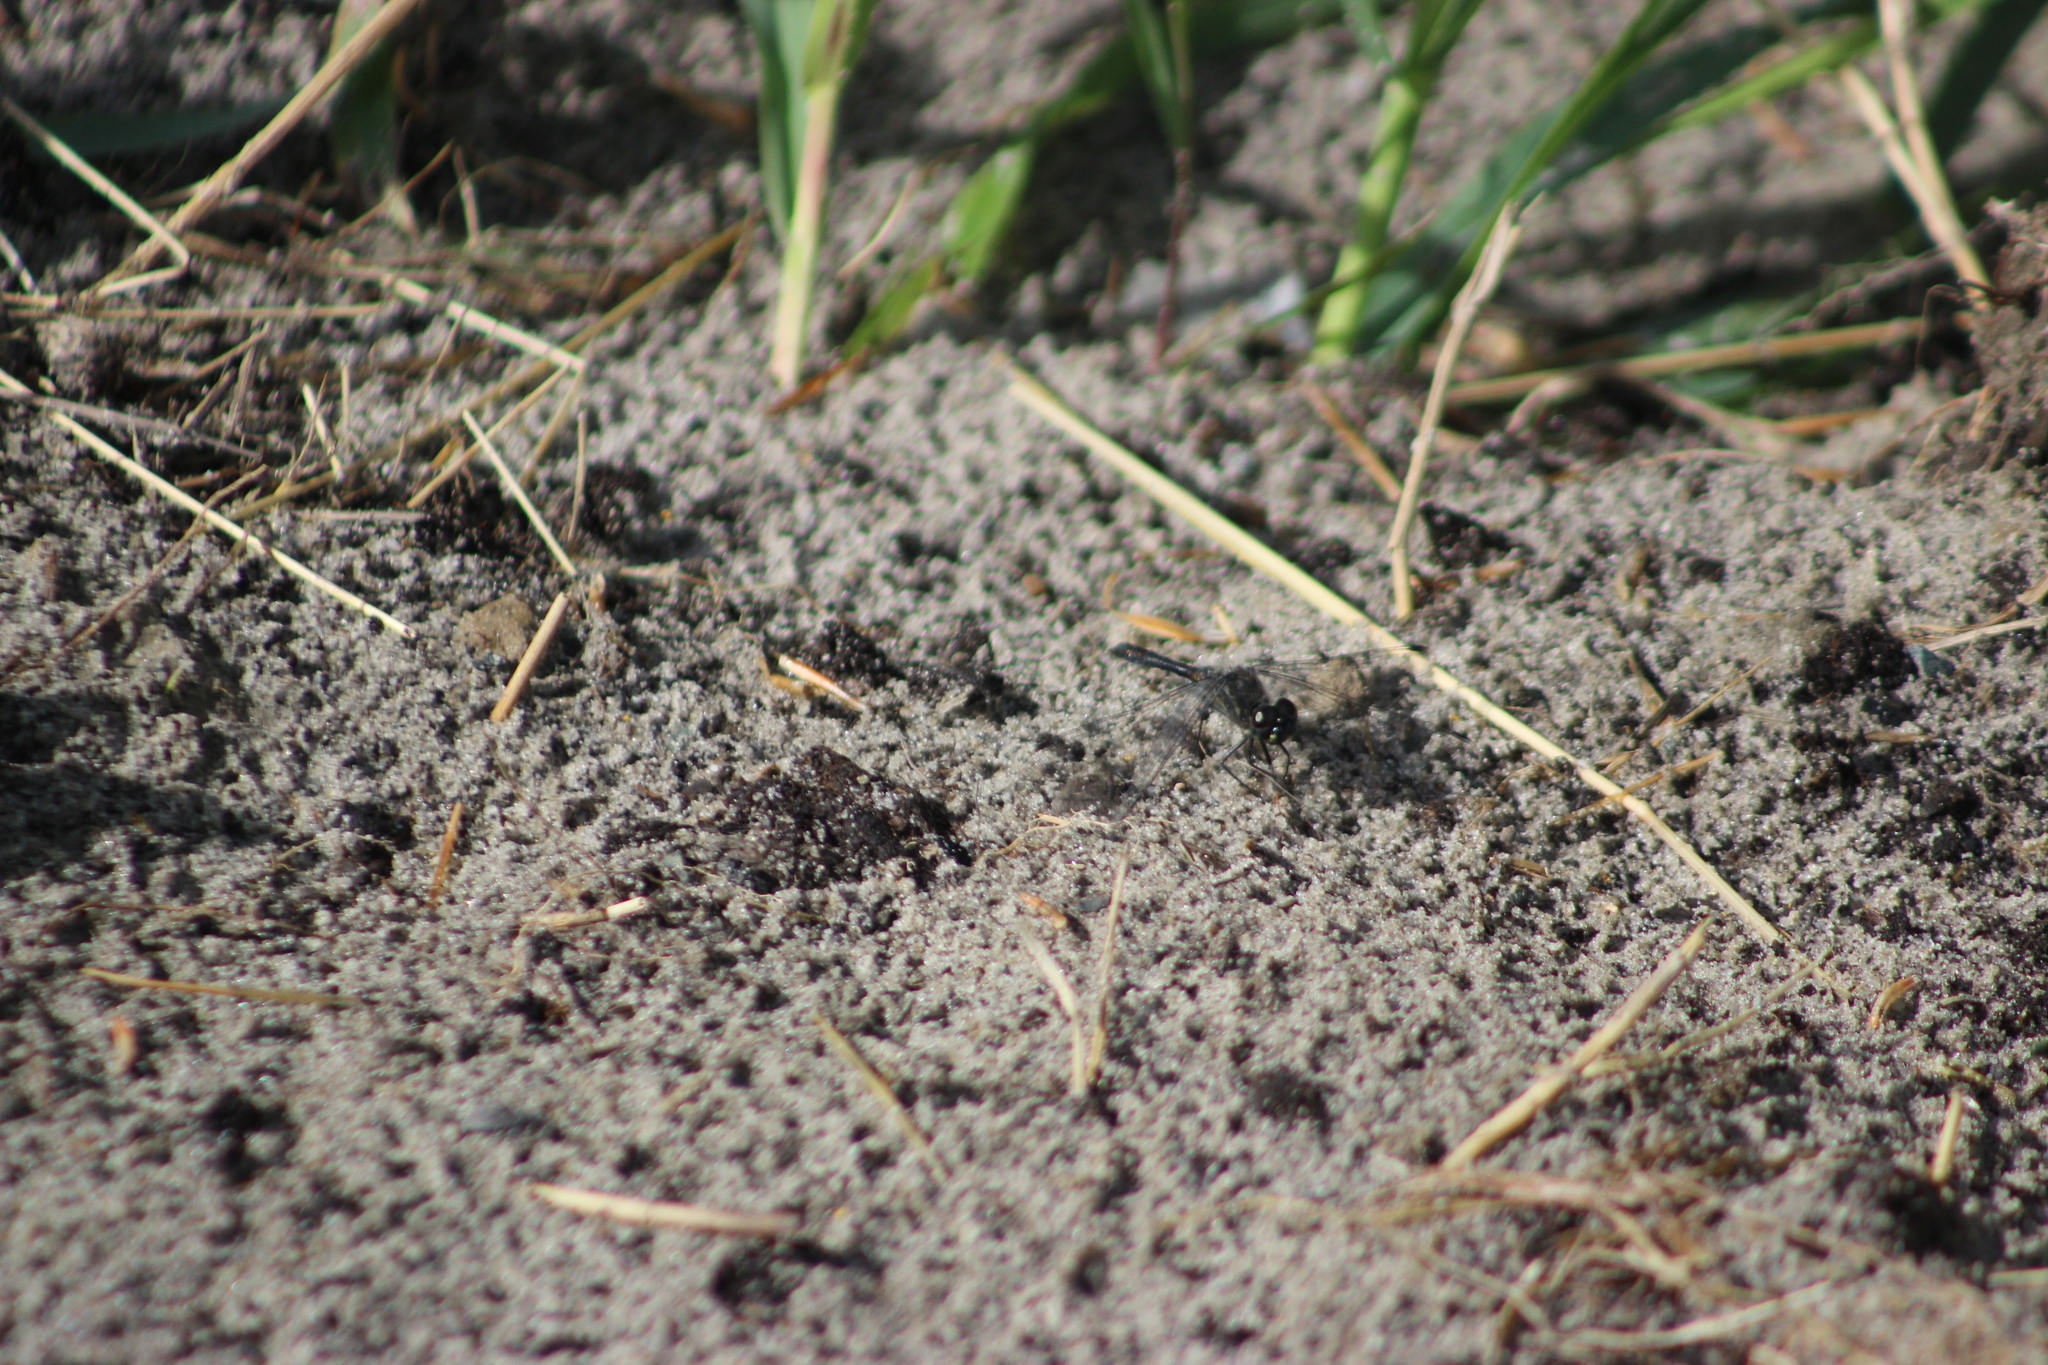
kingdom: Animalia
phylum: Arthropoda
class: Insecta
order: Odonata
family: Libellulidae
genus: Sympetrum
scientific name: Sympetrum danae
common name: Black darter
